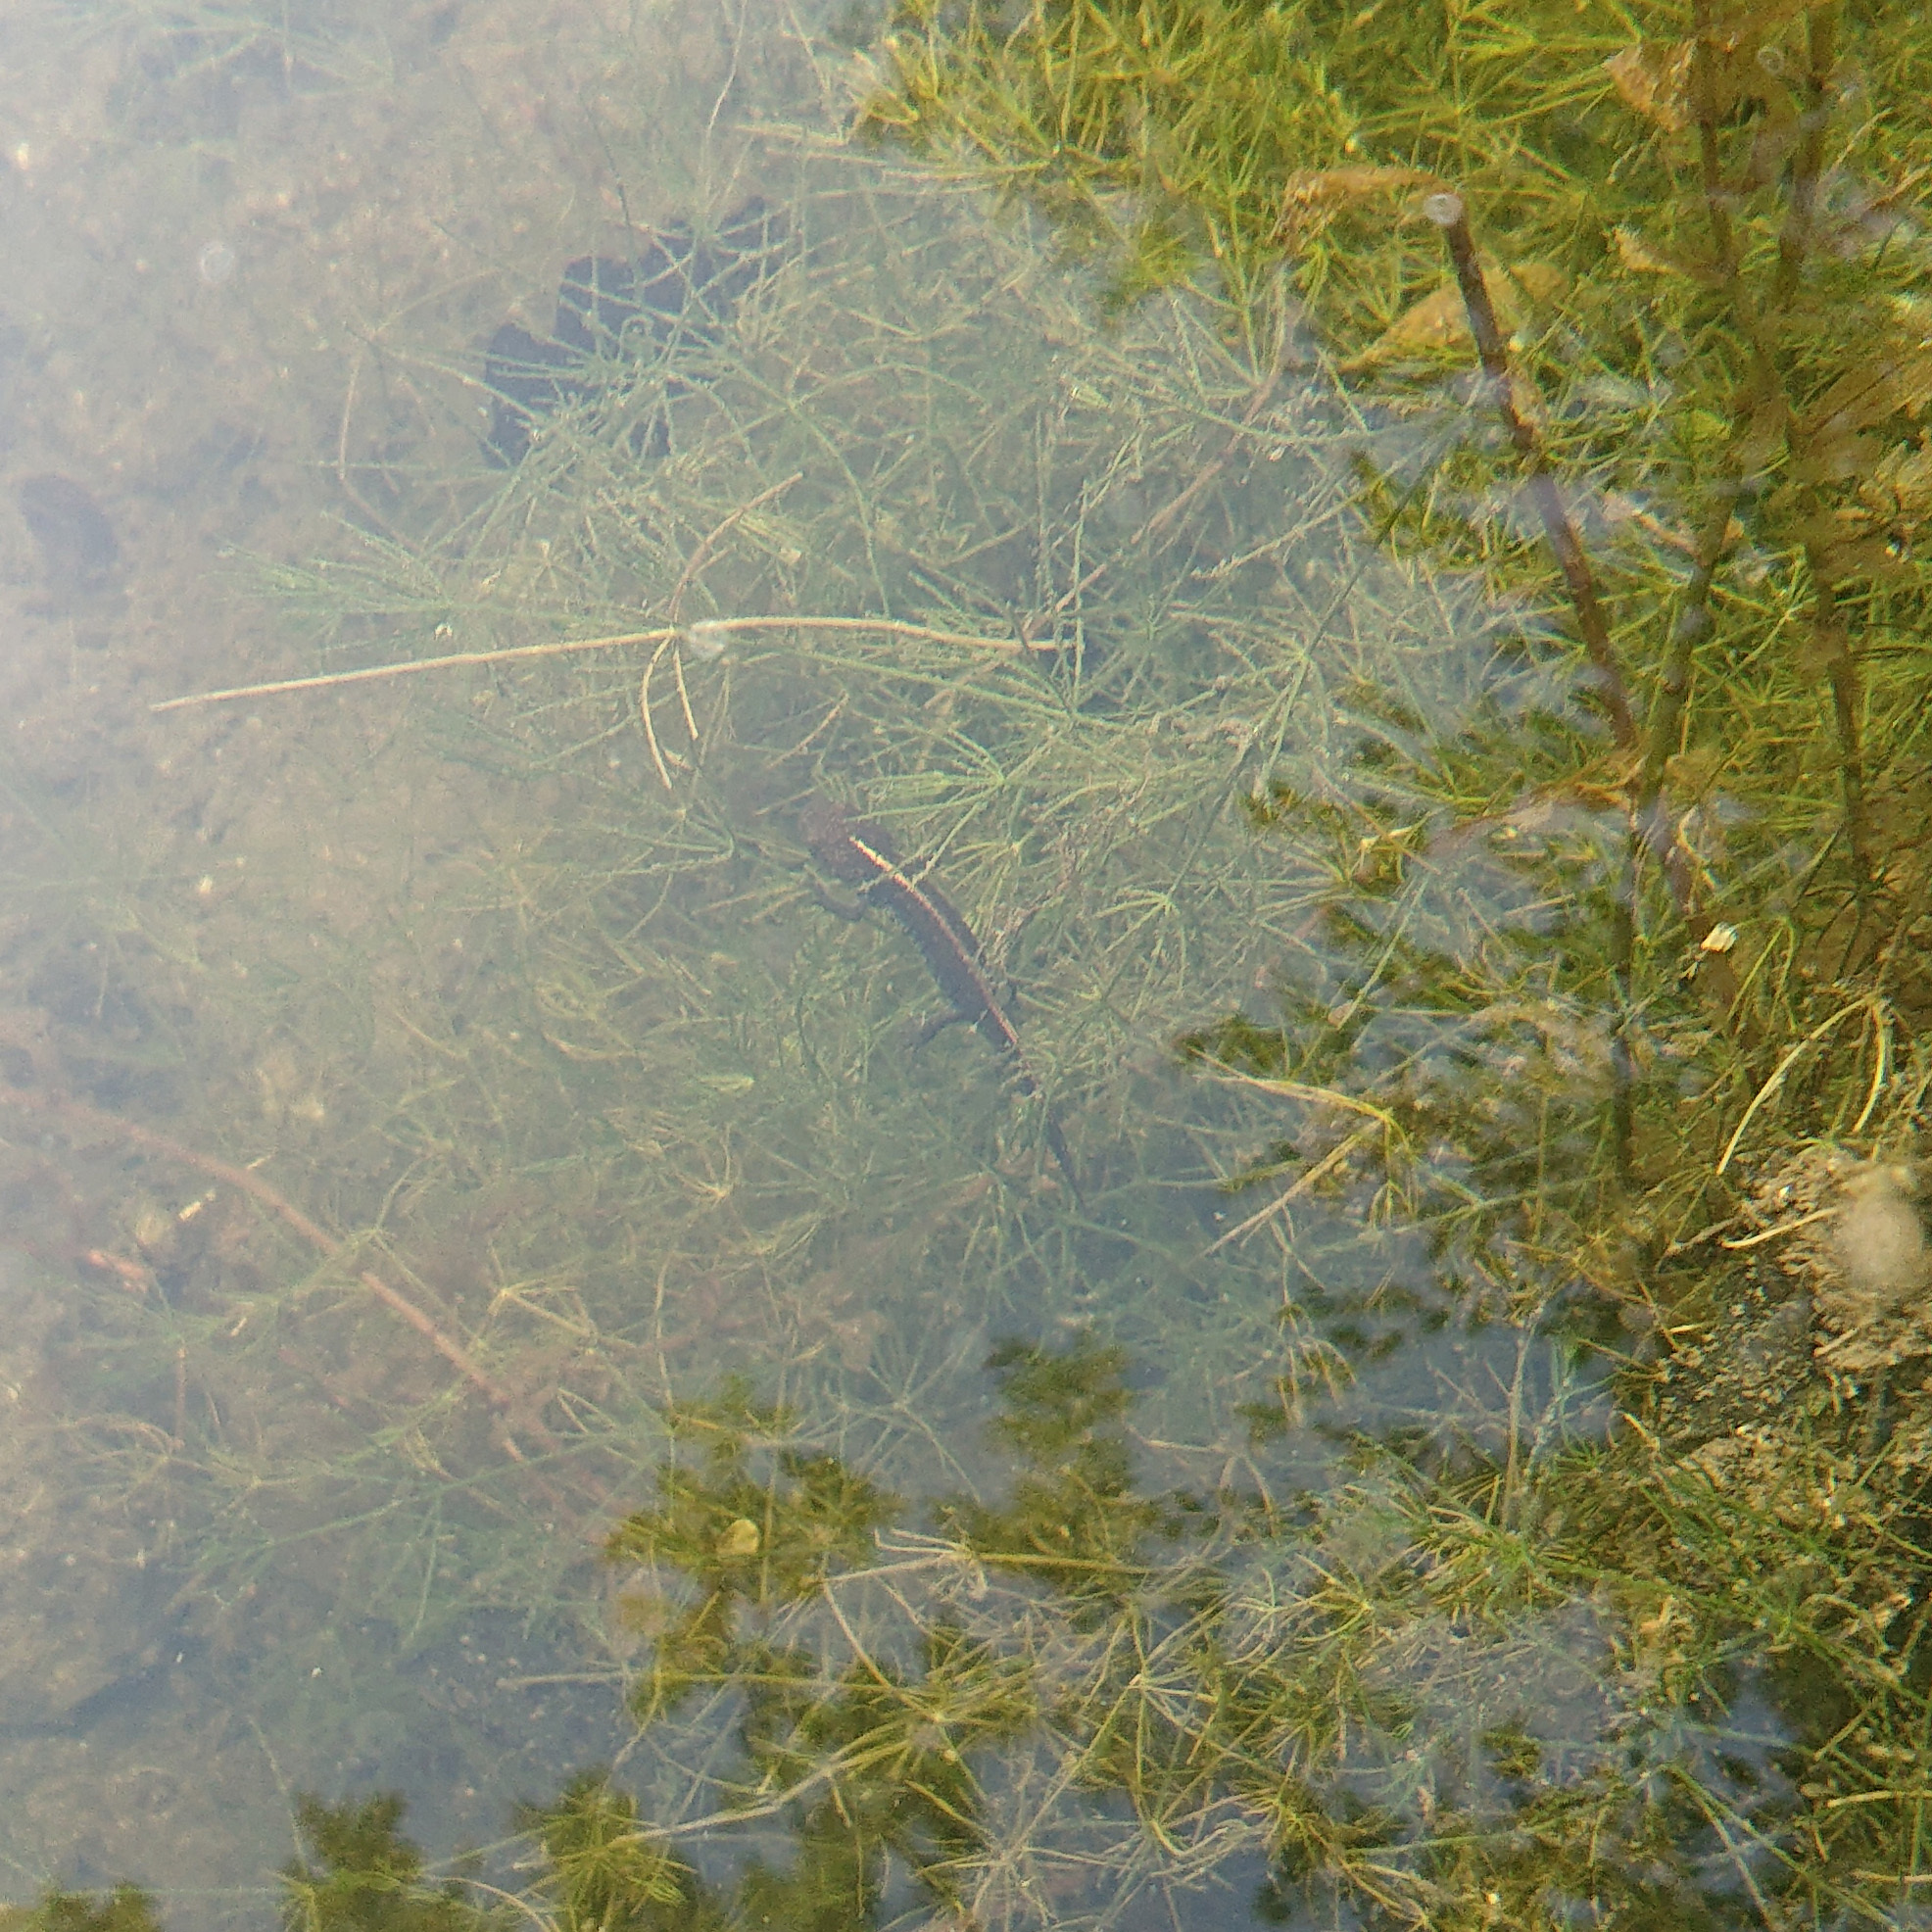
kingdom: Animalia
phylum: Chordata
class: Amphibia
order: Caudata
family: Salamandridae
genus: Triturus
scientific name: Triturus carnifex
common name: Italian crested newt
